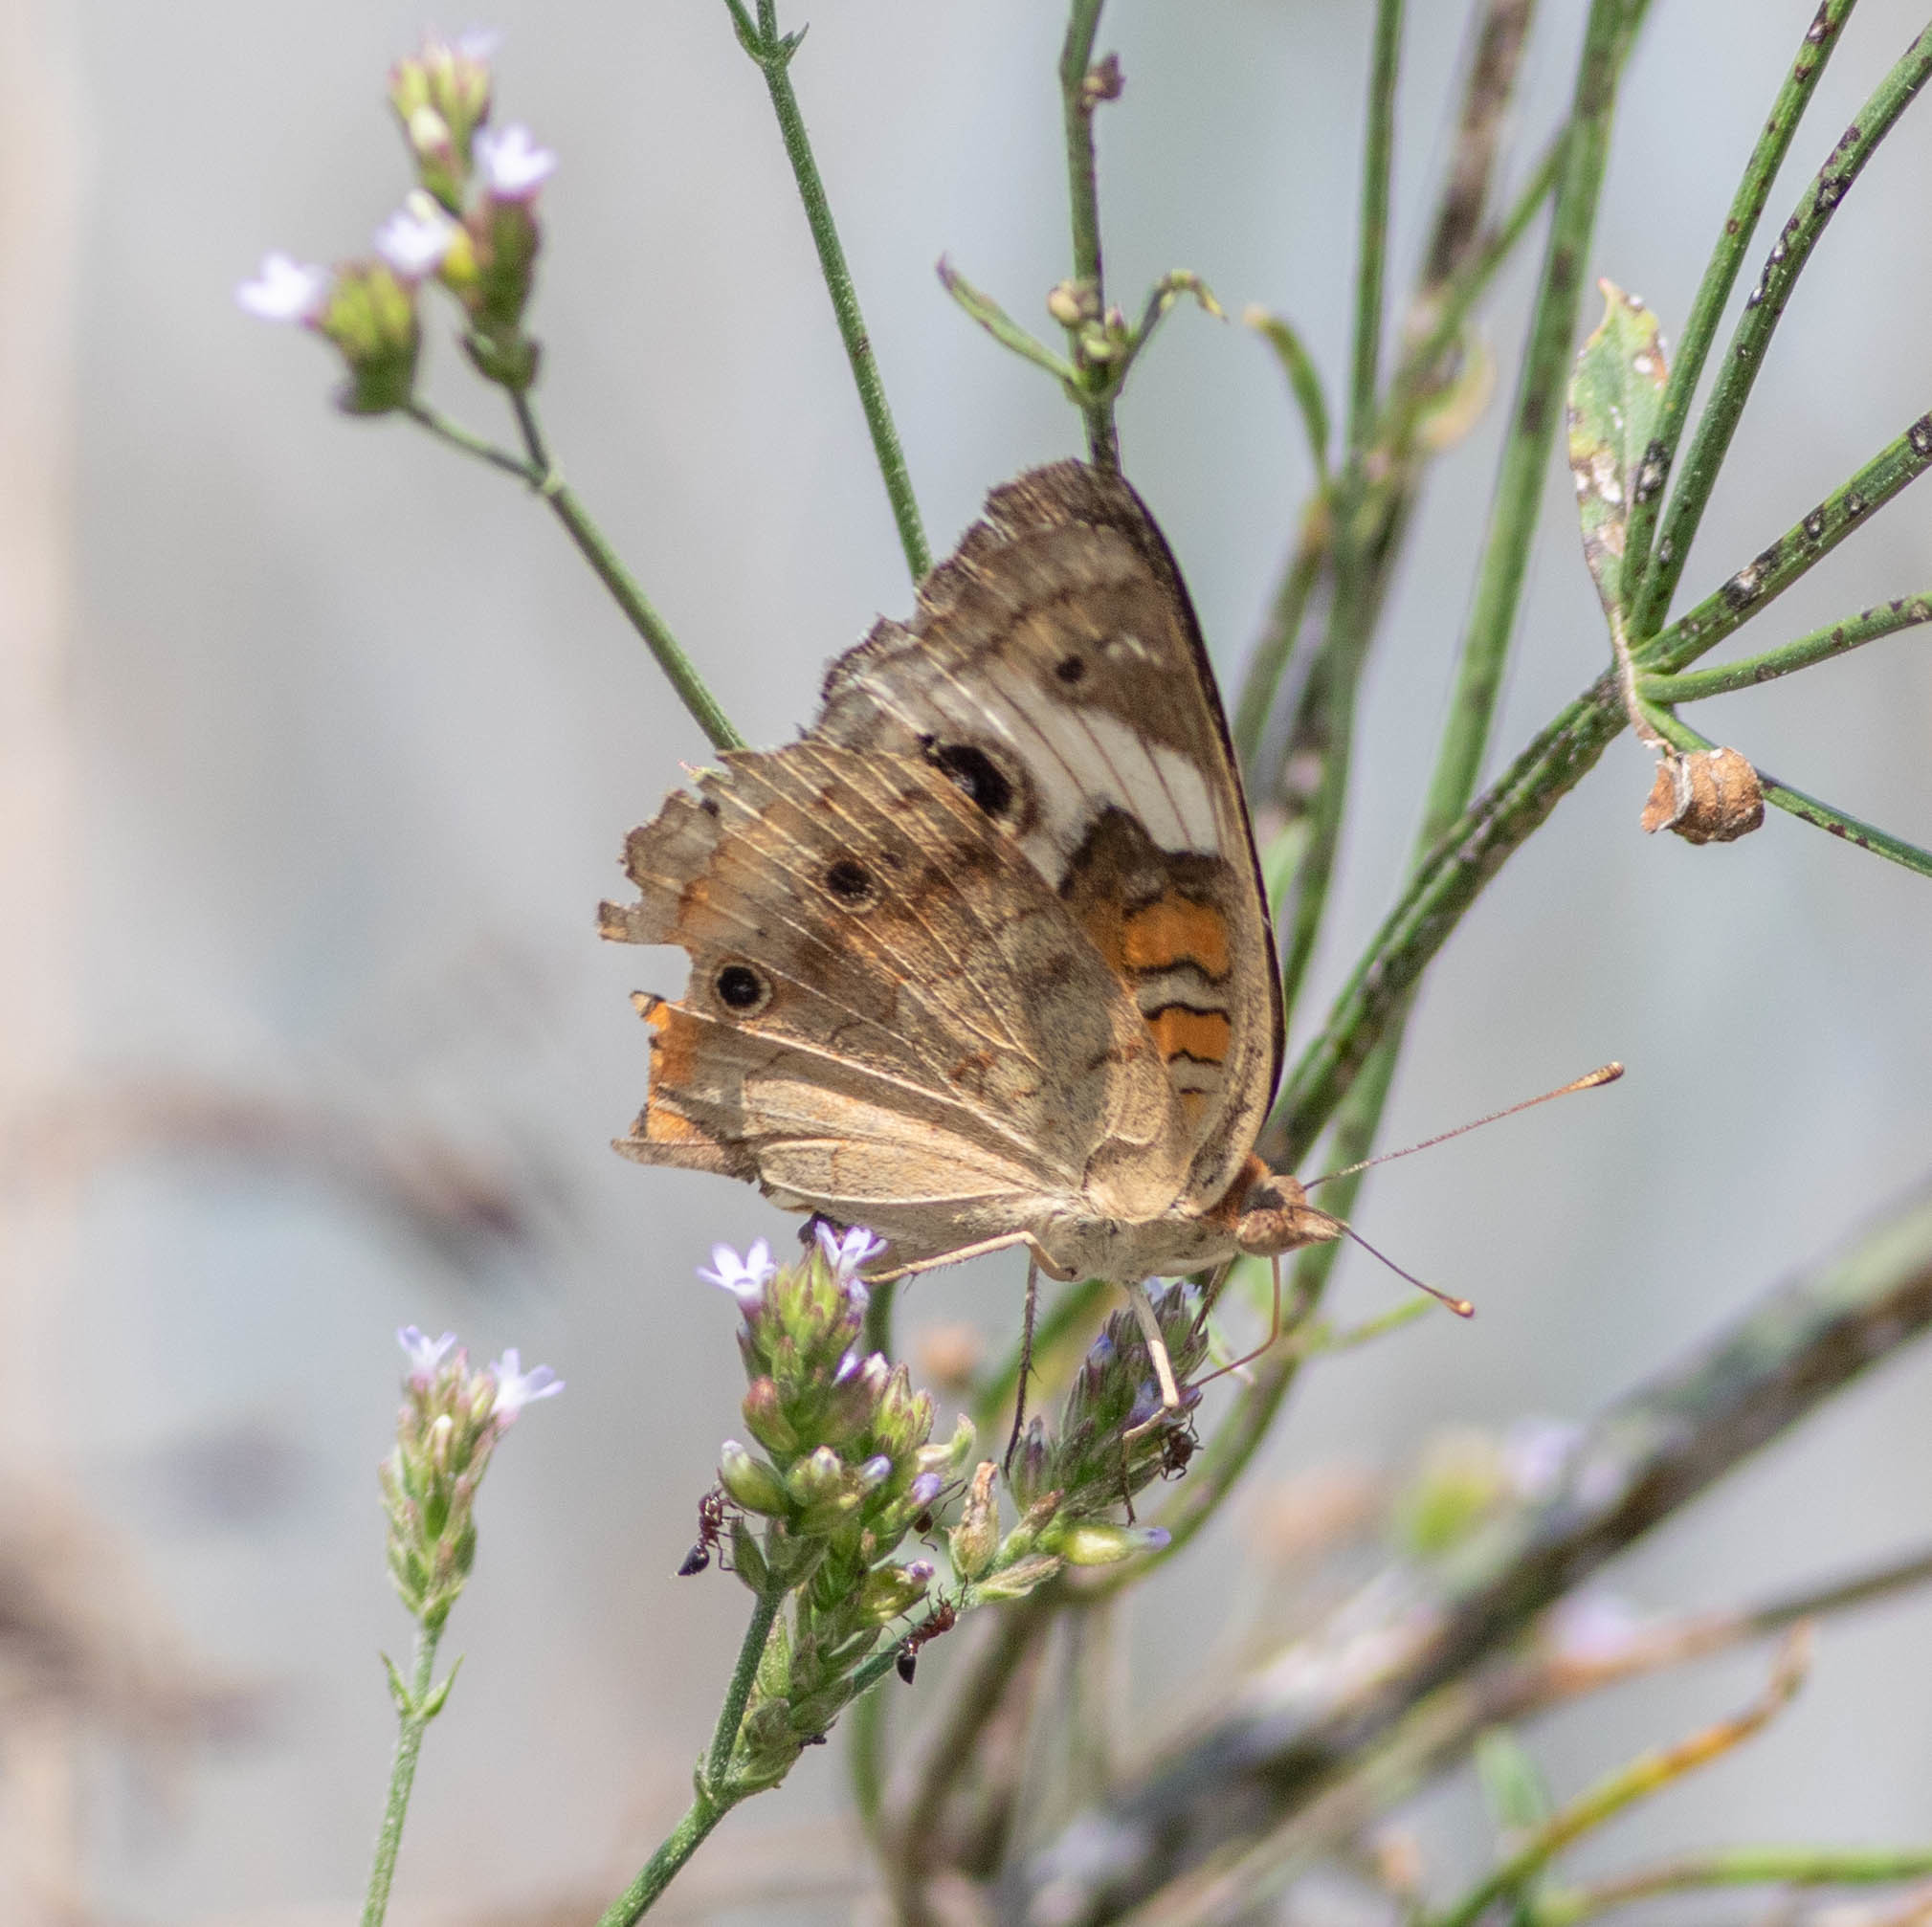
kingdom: Animalia
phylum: Arthropoda
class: Insecta
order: Lepidoptera
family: Nymphalidae
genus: Junonia
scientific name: Junonia coenia
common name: Common buckeye
